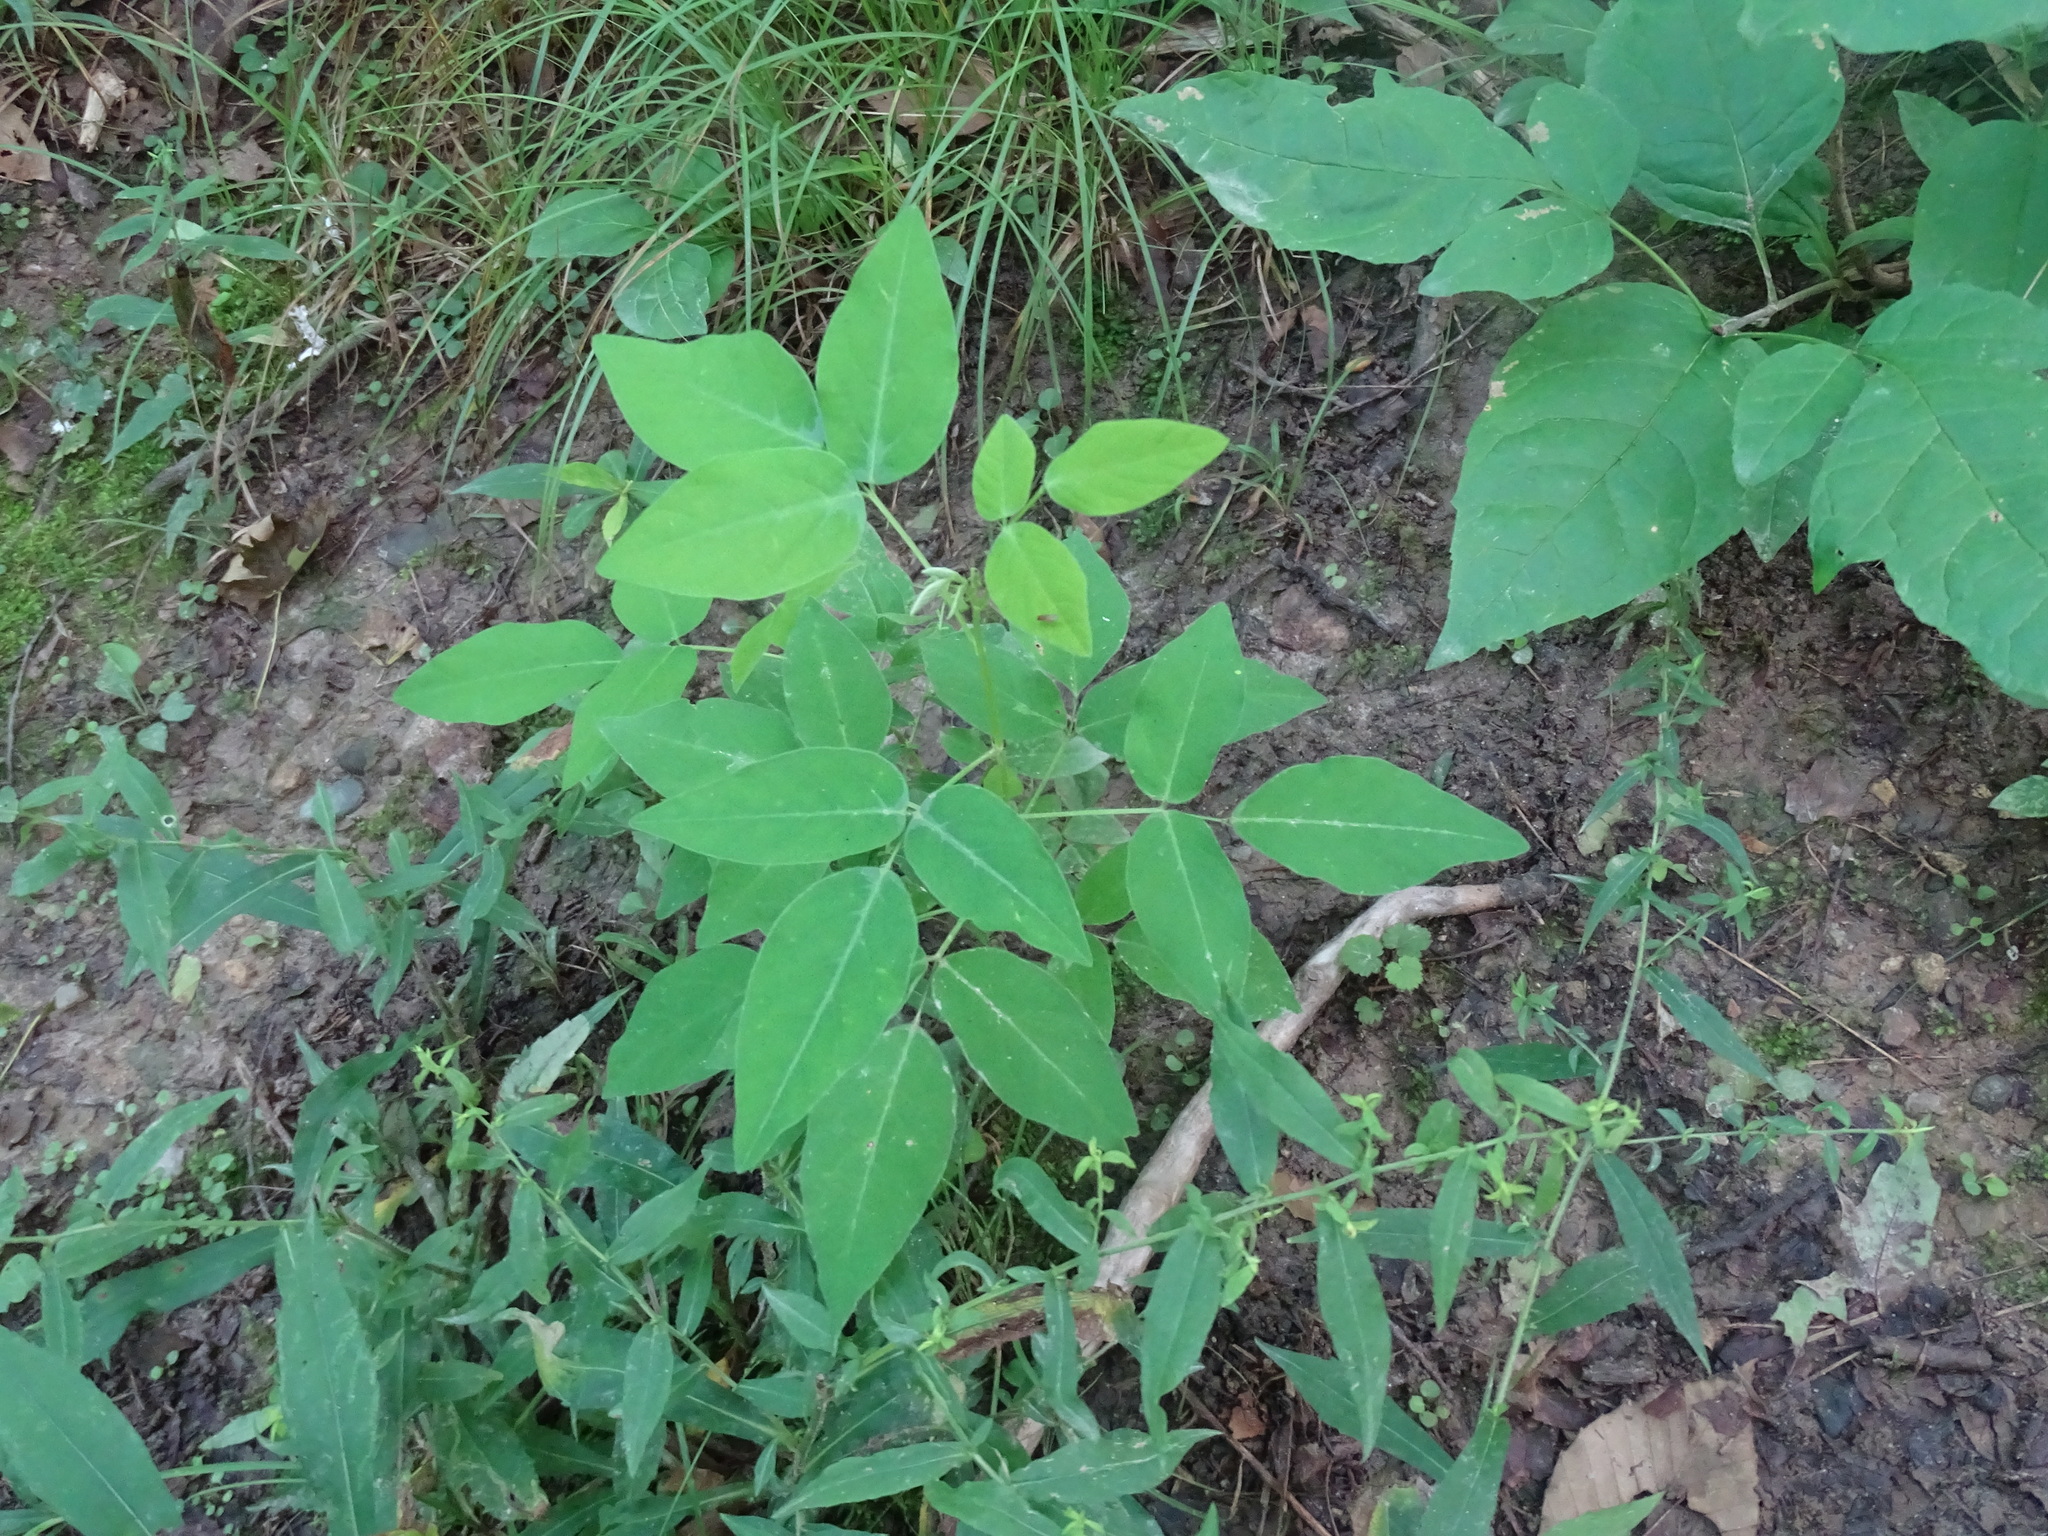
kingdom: Plantae
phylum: Tracheophyta
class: Magnoliopsida
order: Fabales
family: Fabaceae
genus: Desmodium
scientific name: Desmodium perplexum
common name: Perplexed tick trefoil
